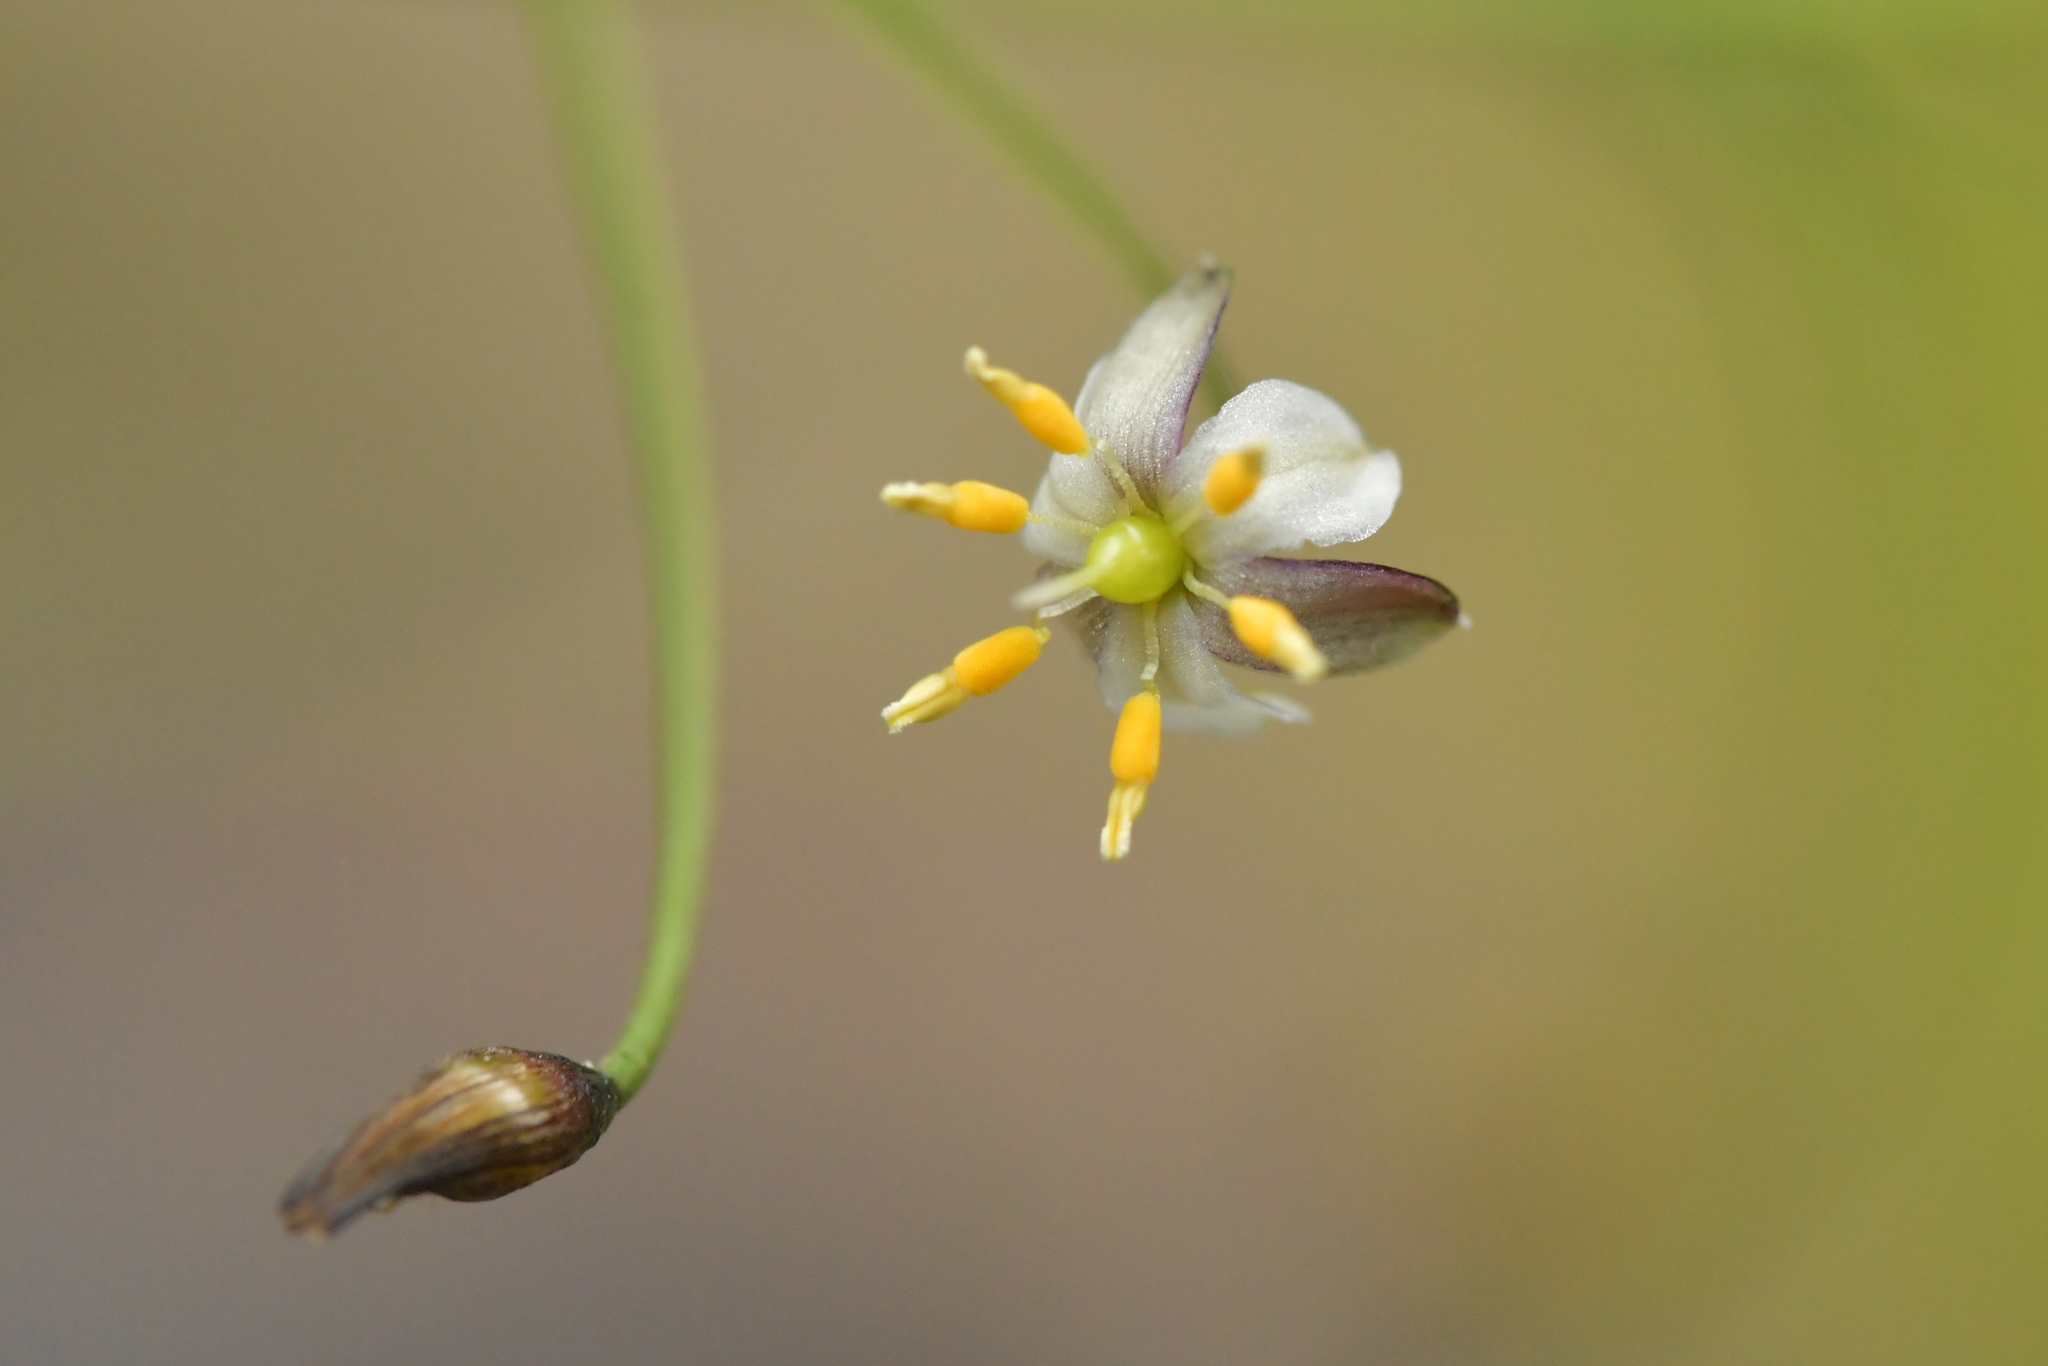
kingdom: Plantae
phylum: Tracheophyta
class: Liliopsida
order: Asparagales
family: Asphodelaceae
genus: Dianella
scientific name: Dianella nigra
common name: New zealand-blueberry
